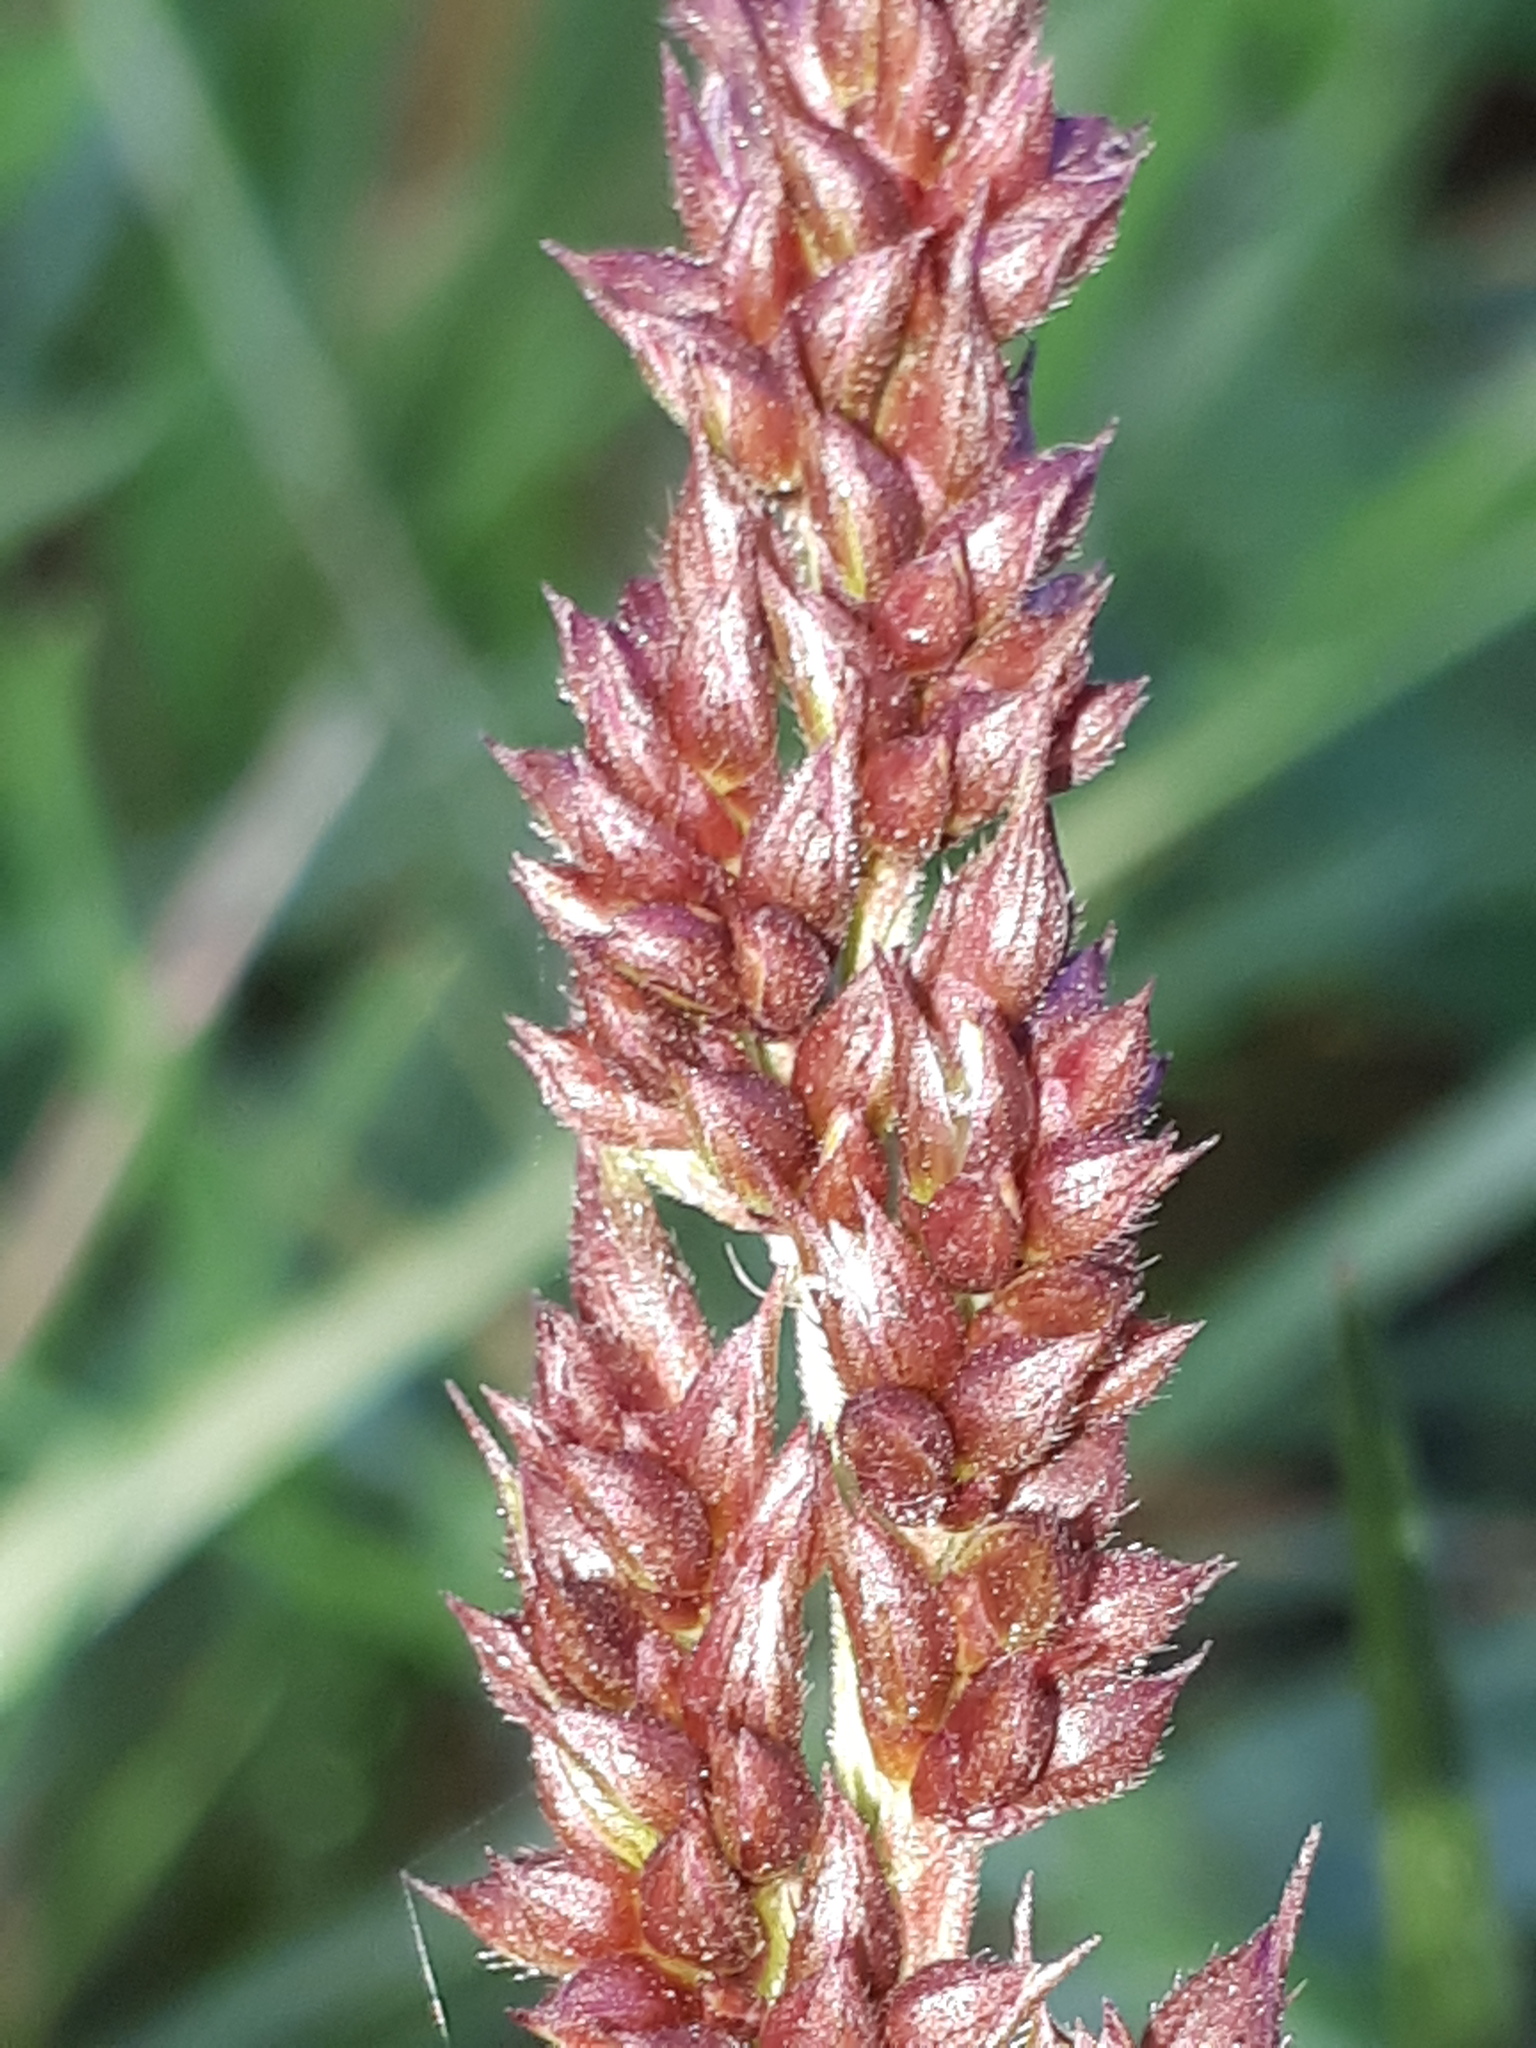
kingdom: Plantae
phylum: Tracheophyta
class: Liliopsida
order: Poales
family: Poaceae
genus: Echinochloa
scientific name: Echinochloa crus-galli
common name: Cockspur
